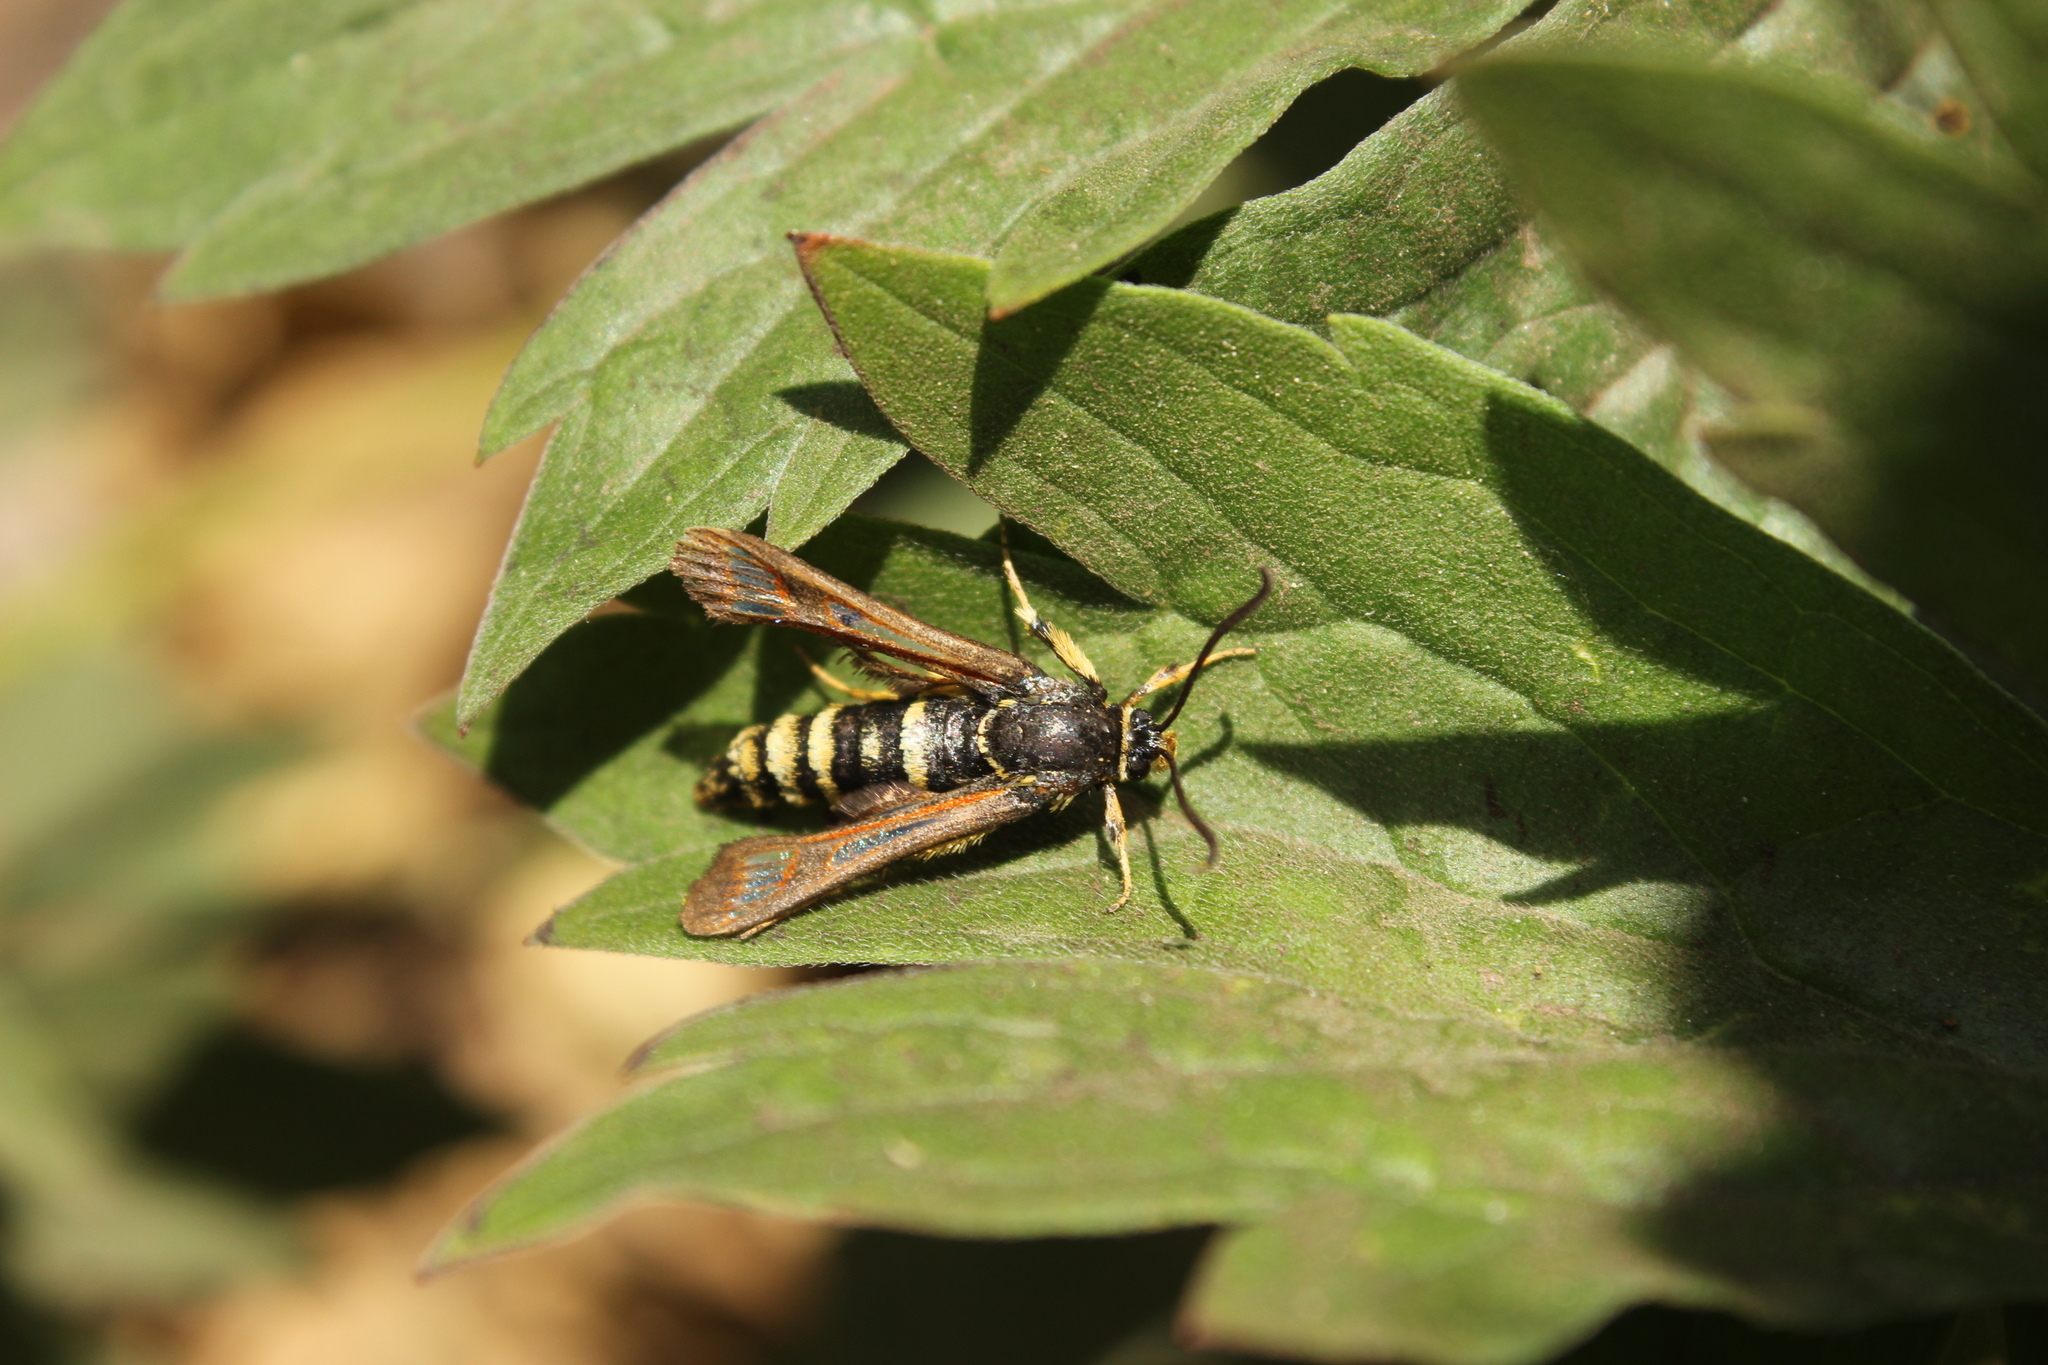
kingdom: Animalia
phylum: Arthropoda
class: Insecta
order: Lepidoptera
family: Sesiidae
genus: Albuna
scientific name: Albuna pyramidalis
